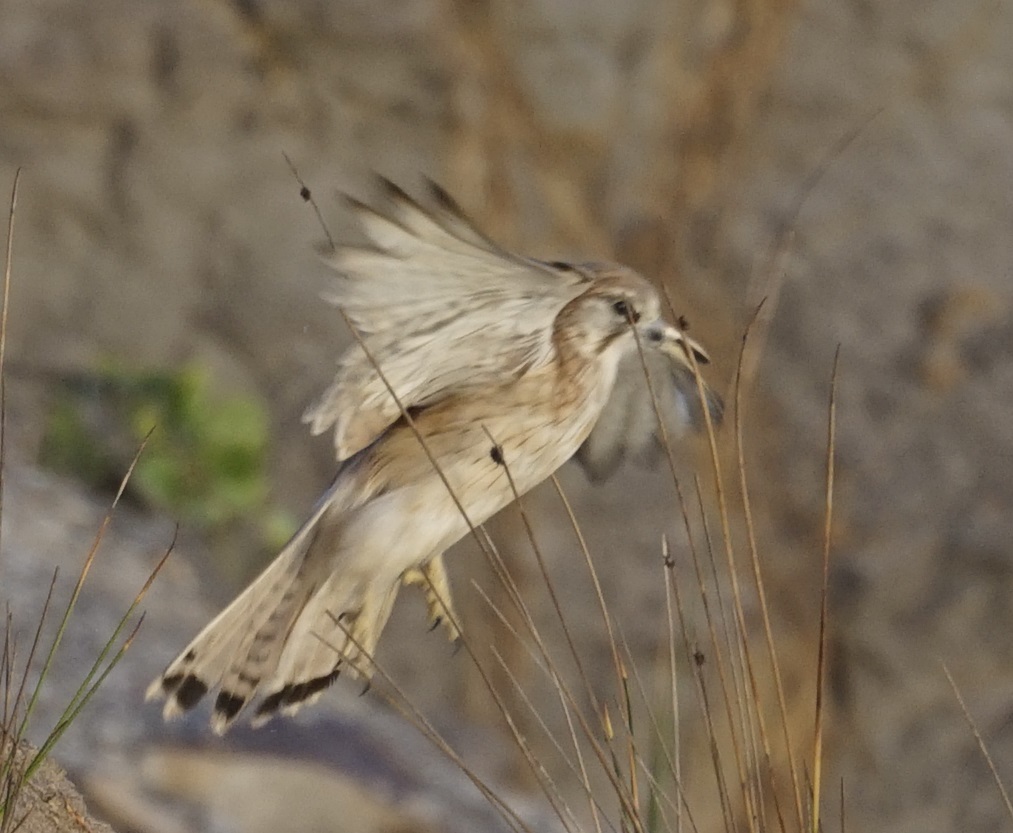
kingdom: Animalia
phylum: Chordata
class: Aves
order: Falconiformes
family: Falconidae
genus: Falco
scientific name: Falco cenchroides
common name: Nankeen kestrel
